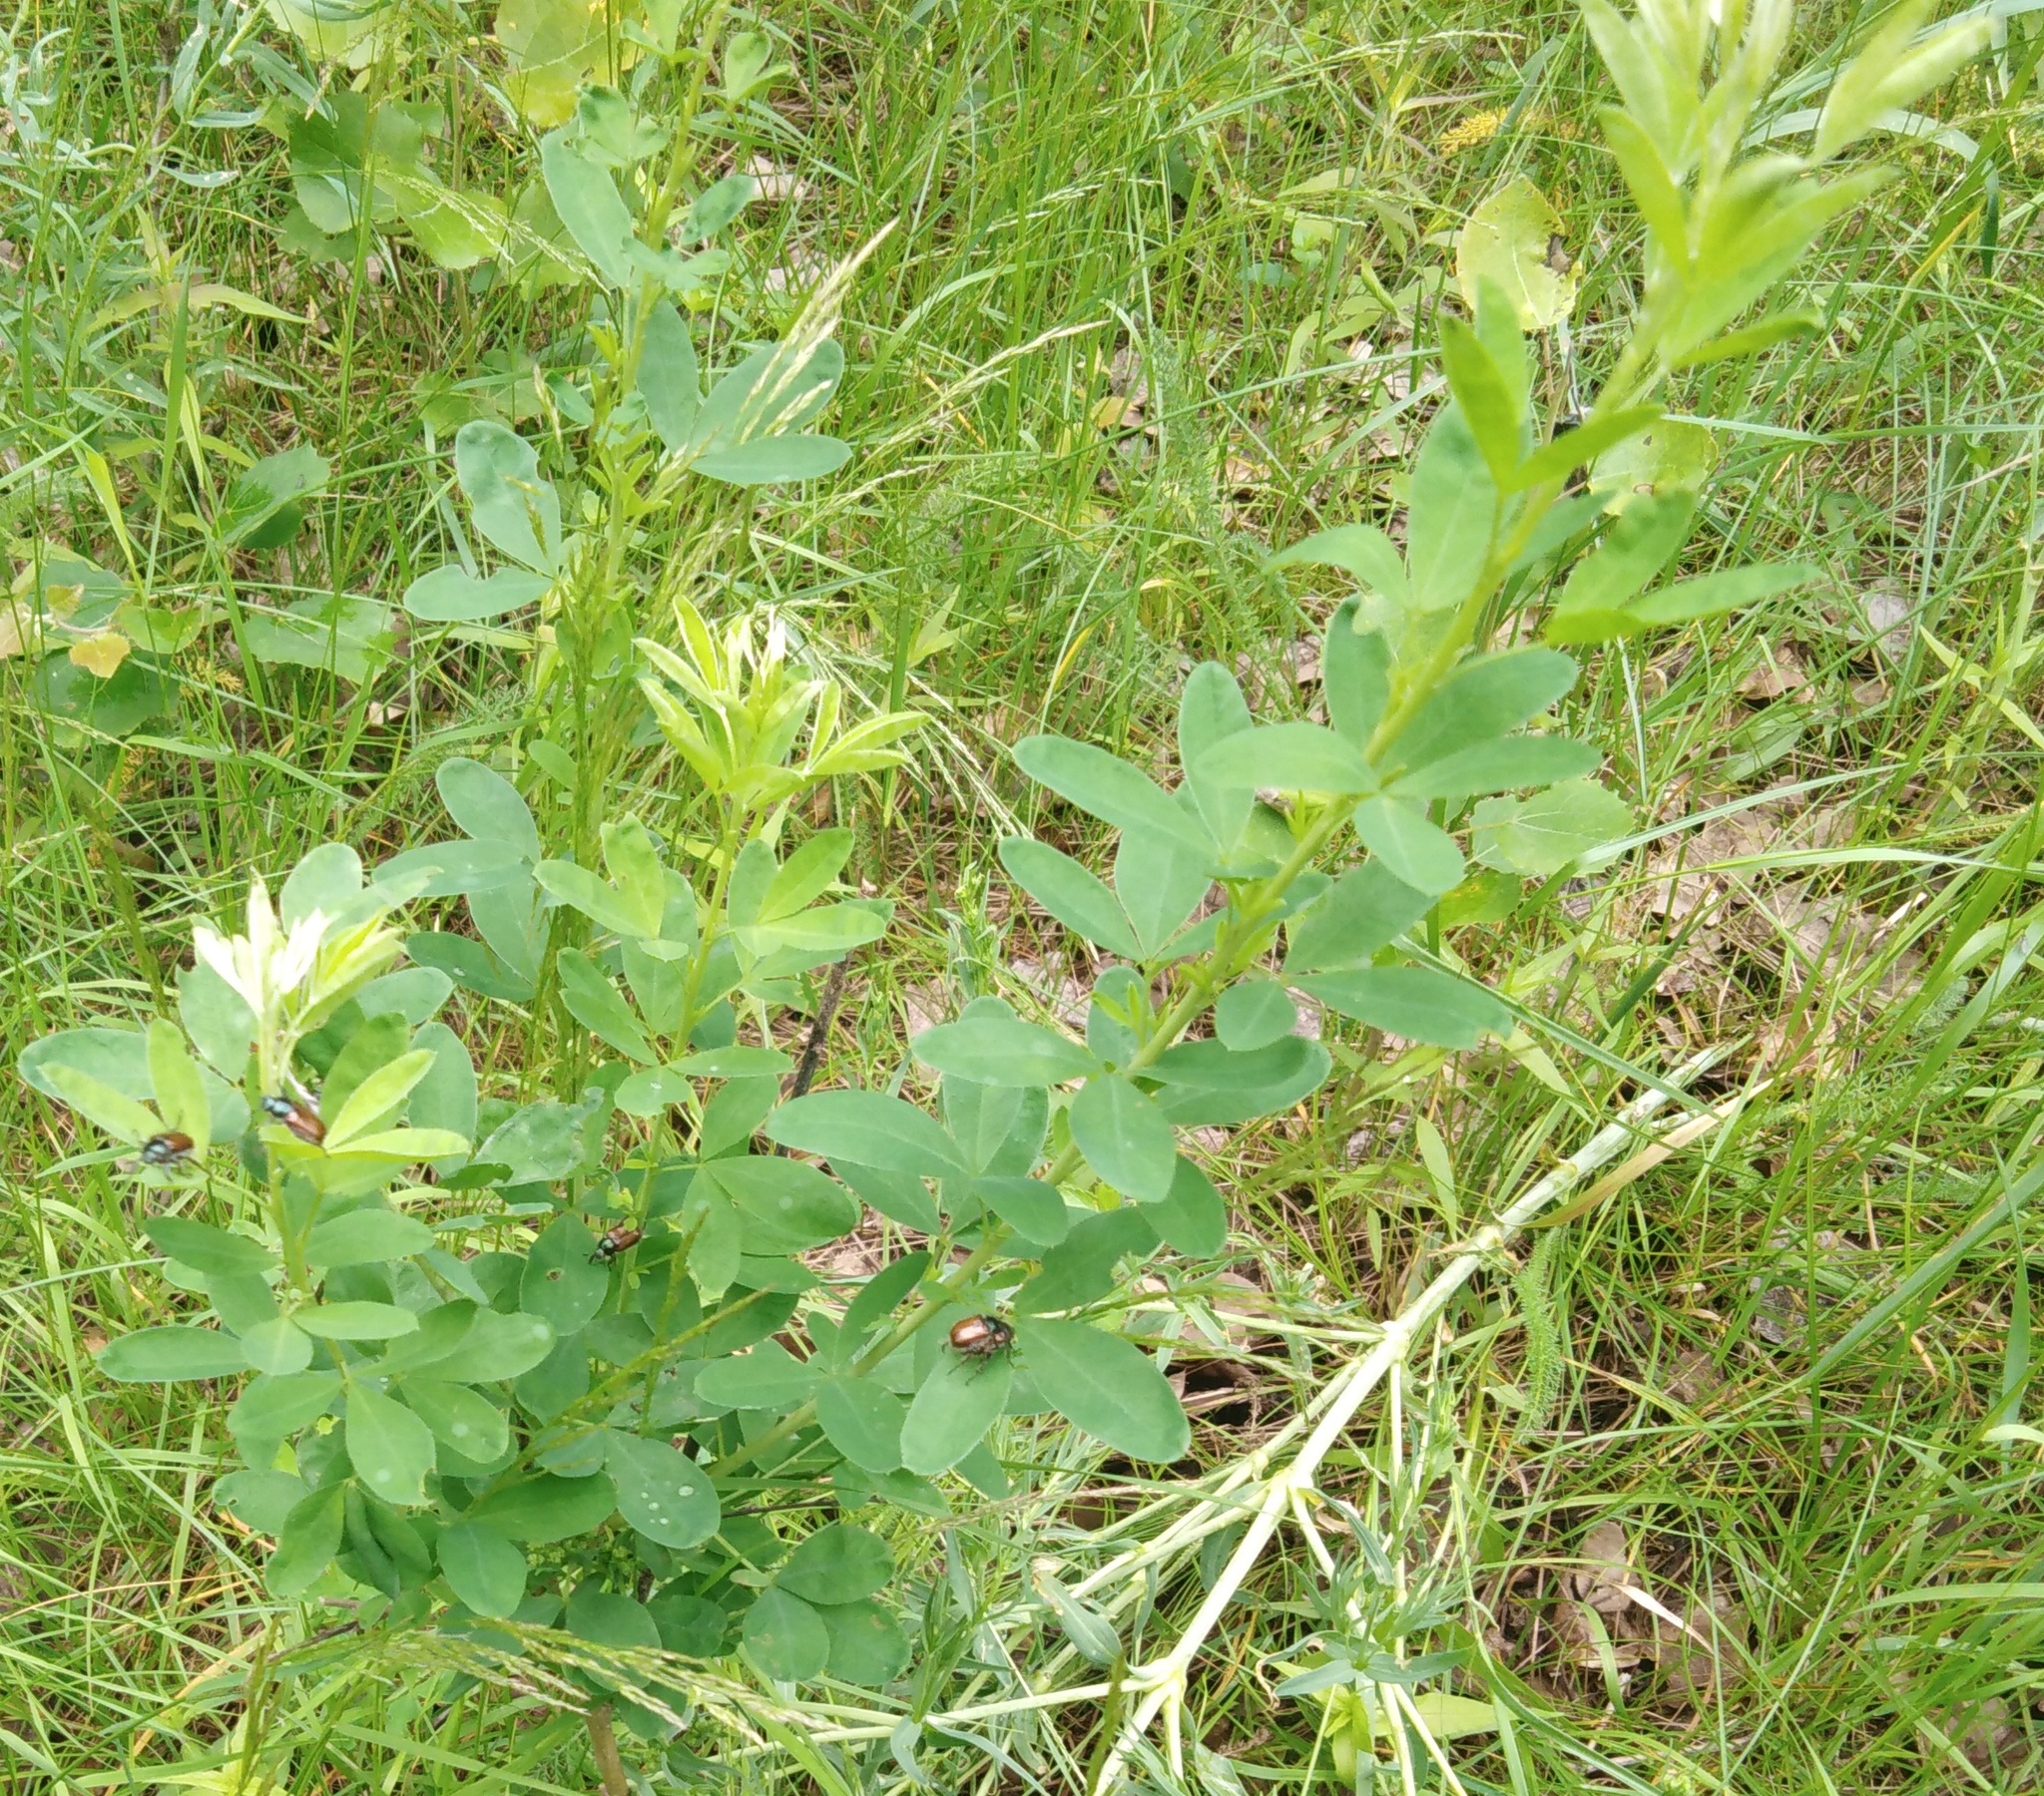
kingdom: Plantae
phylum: Tracheophyta
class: Magnoliopsida
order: Fabales
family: Fabaceae
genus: Chamaecytisus
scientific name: Chamaecytisus ruthenicus
